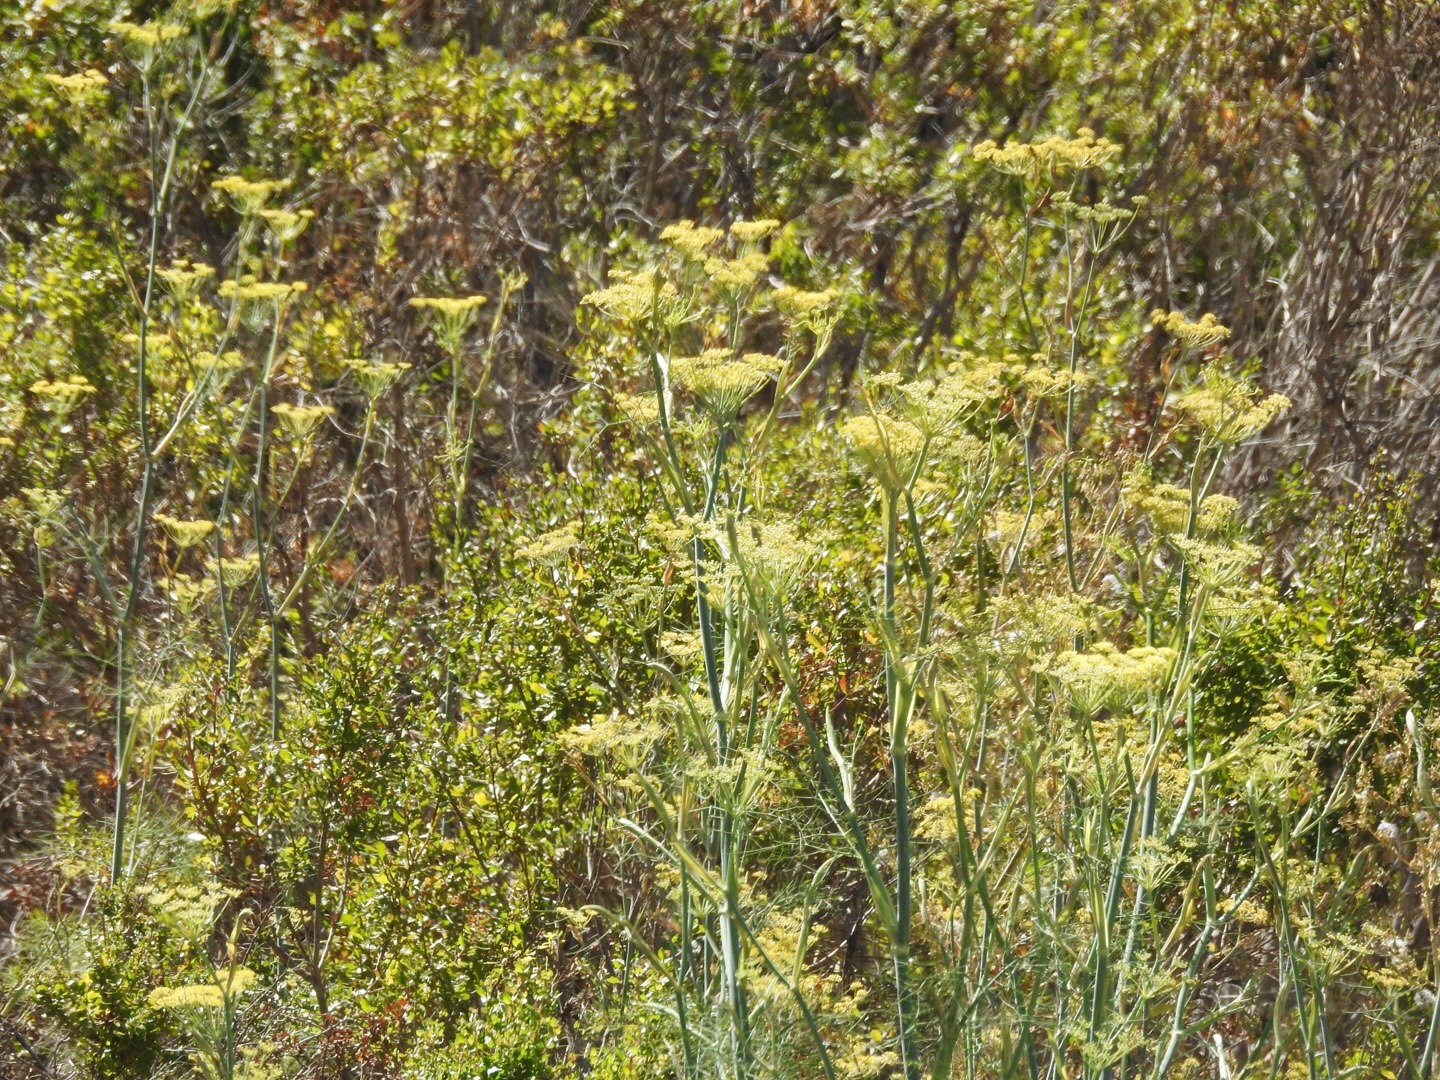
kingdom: Plantae
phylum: Tracheophyta
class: Magnoliopsida
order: Apiales
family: Apiaceae
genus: Foeniculum
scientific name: Foeniculum vulgare
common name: Fennel
